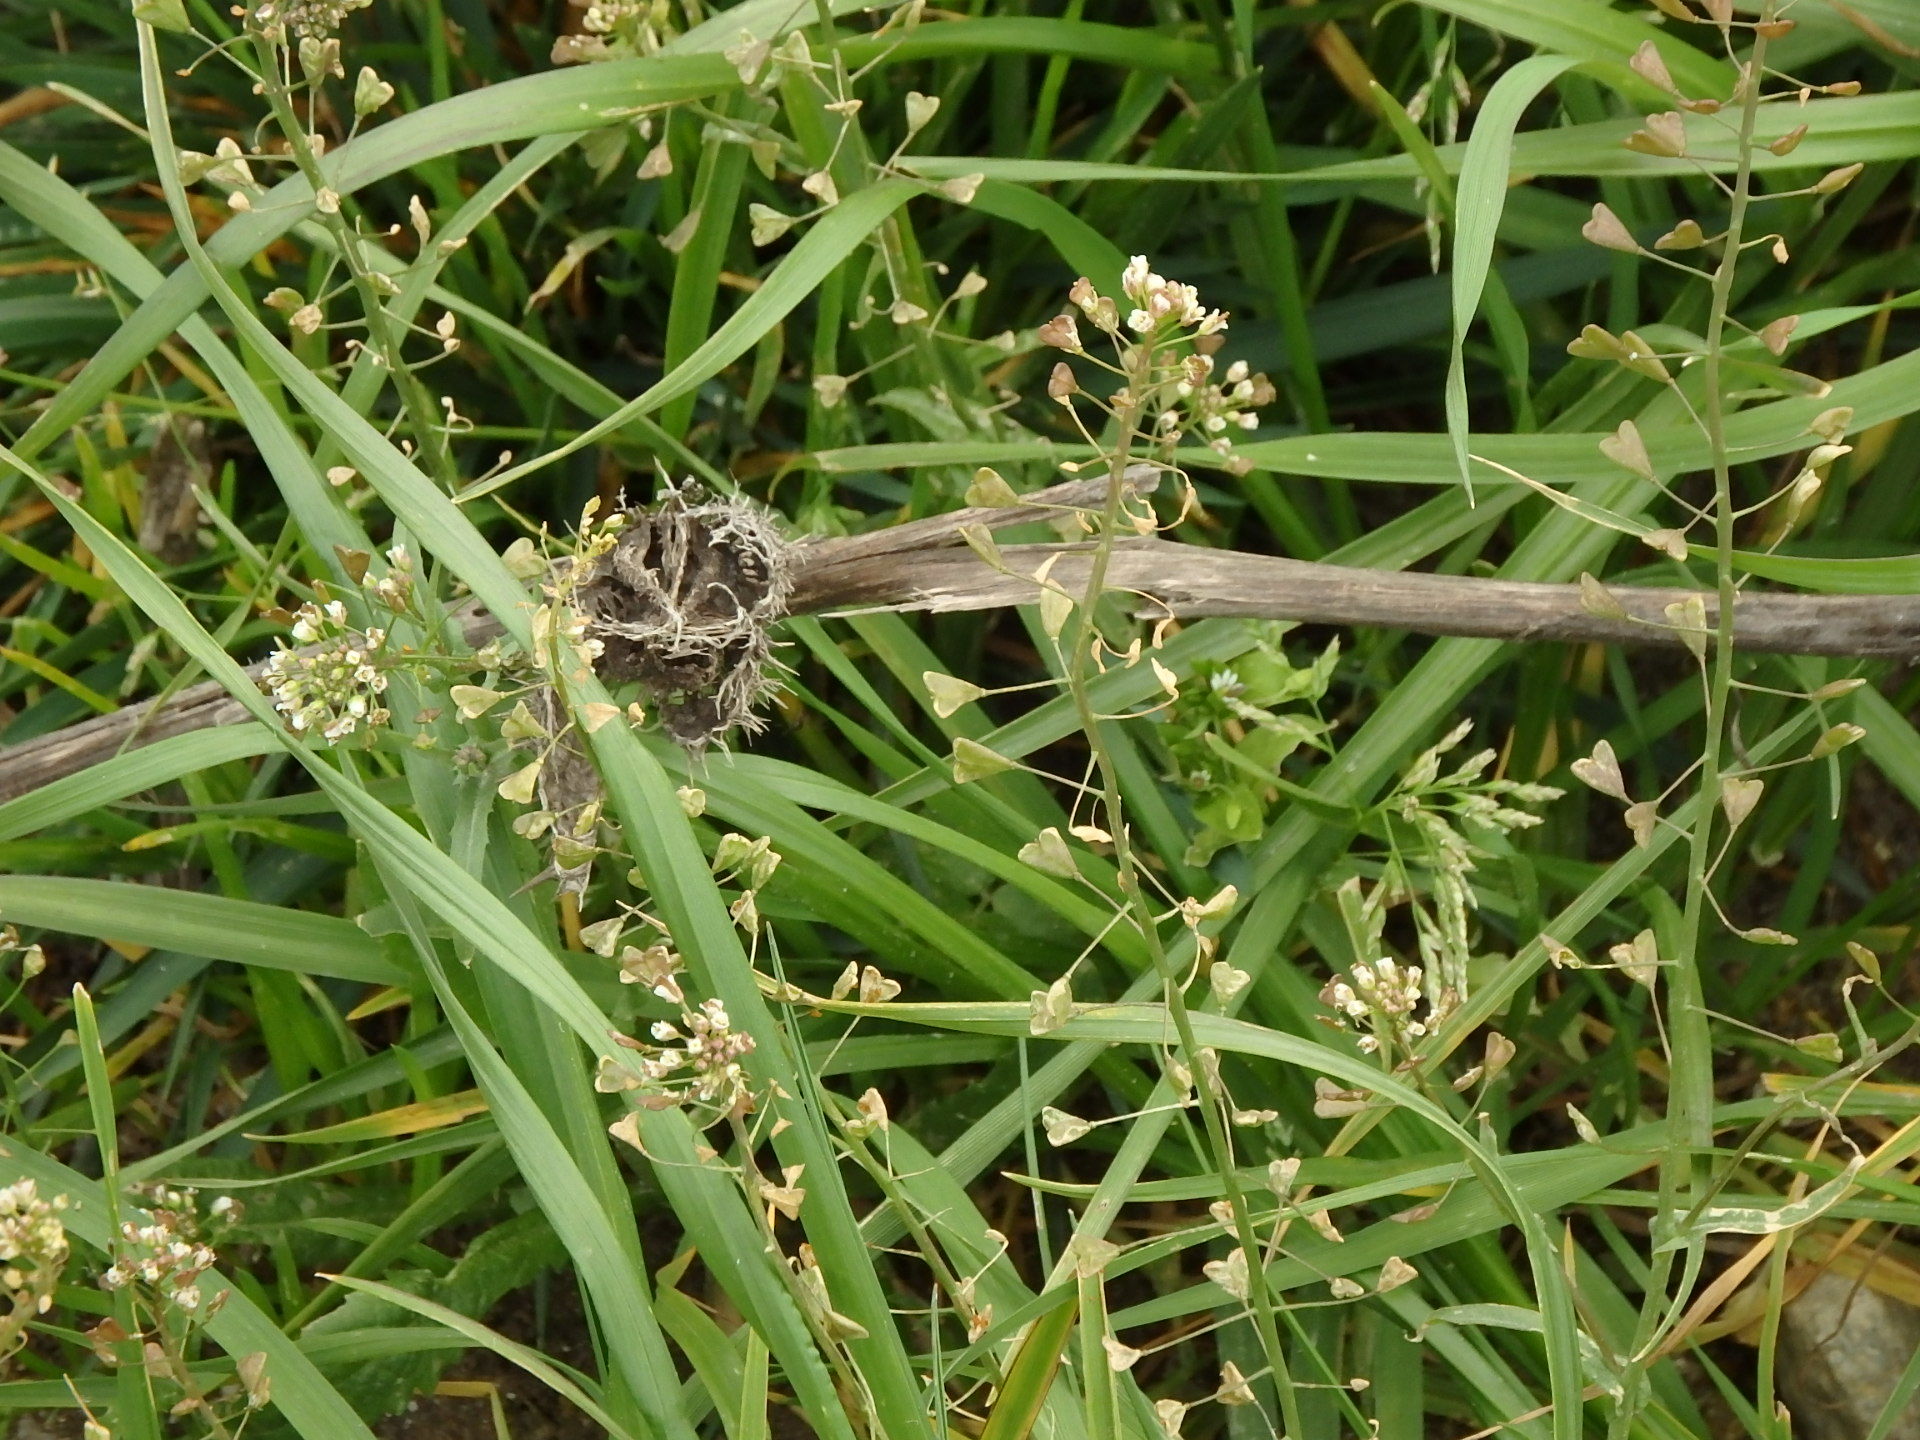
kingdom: Plantae
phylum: Tracheophyta
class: Magnoliopsida
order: Brassicales
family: Brassicaceae
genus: Capsella
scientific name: Capsella bursa-pastoris
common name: Shepherd's purse
